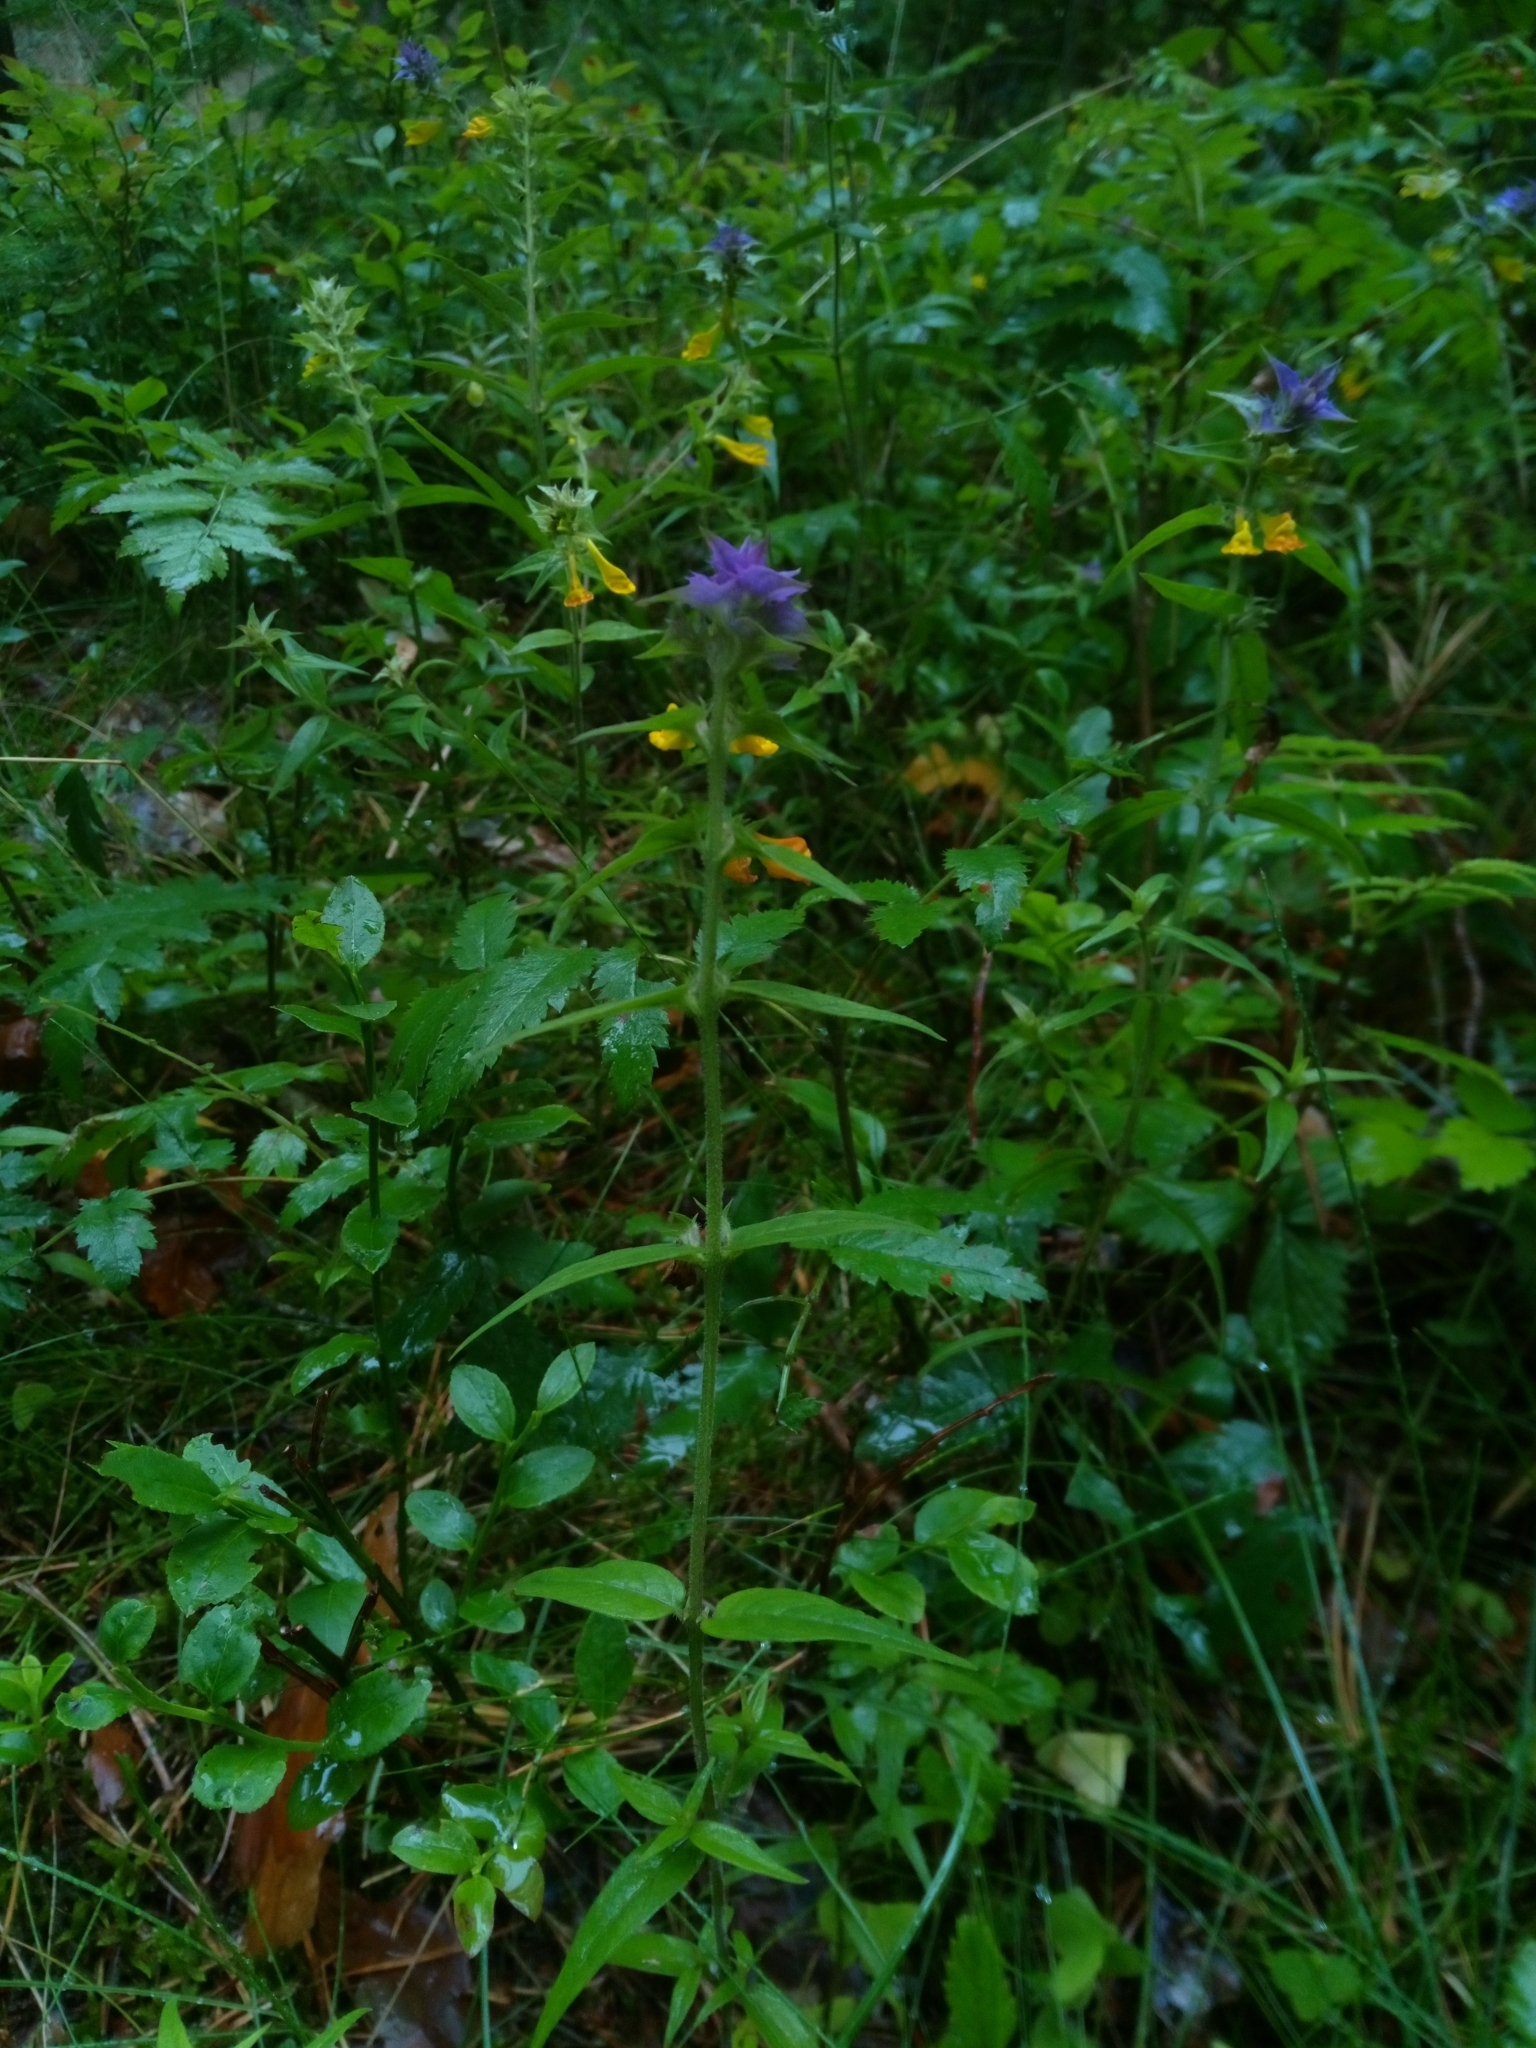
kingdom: Plantae
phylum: Tracheophyta
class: Magnoliopsida
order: Lamiales
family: Orobanchaceae
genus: Melampyrum
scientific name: Melampyrum nemorosum
